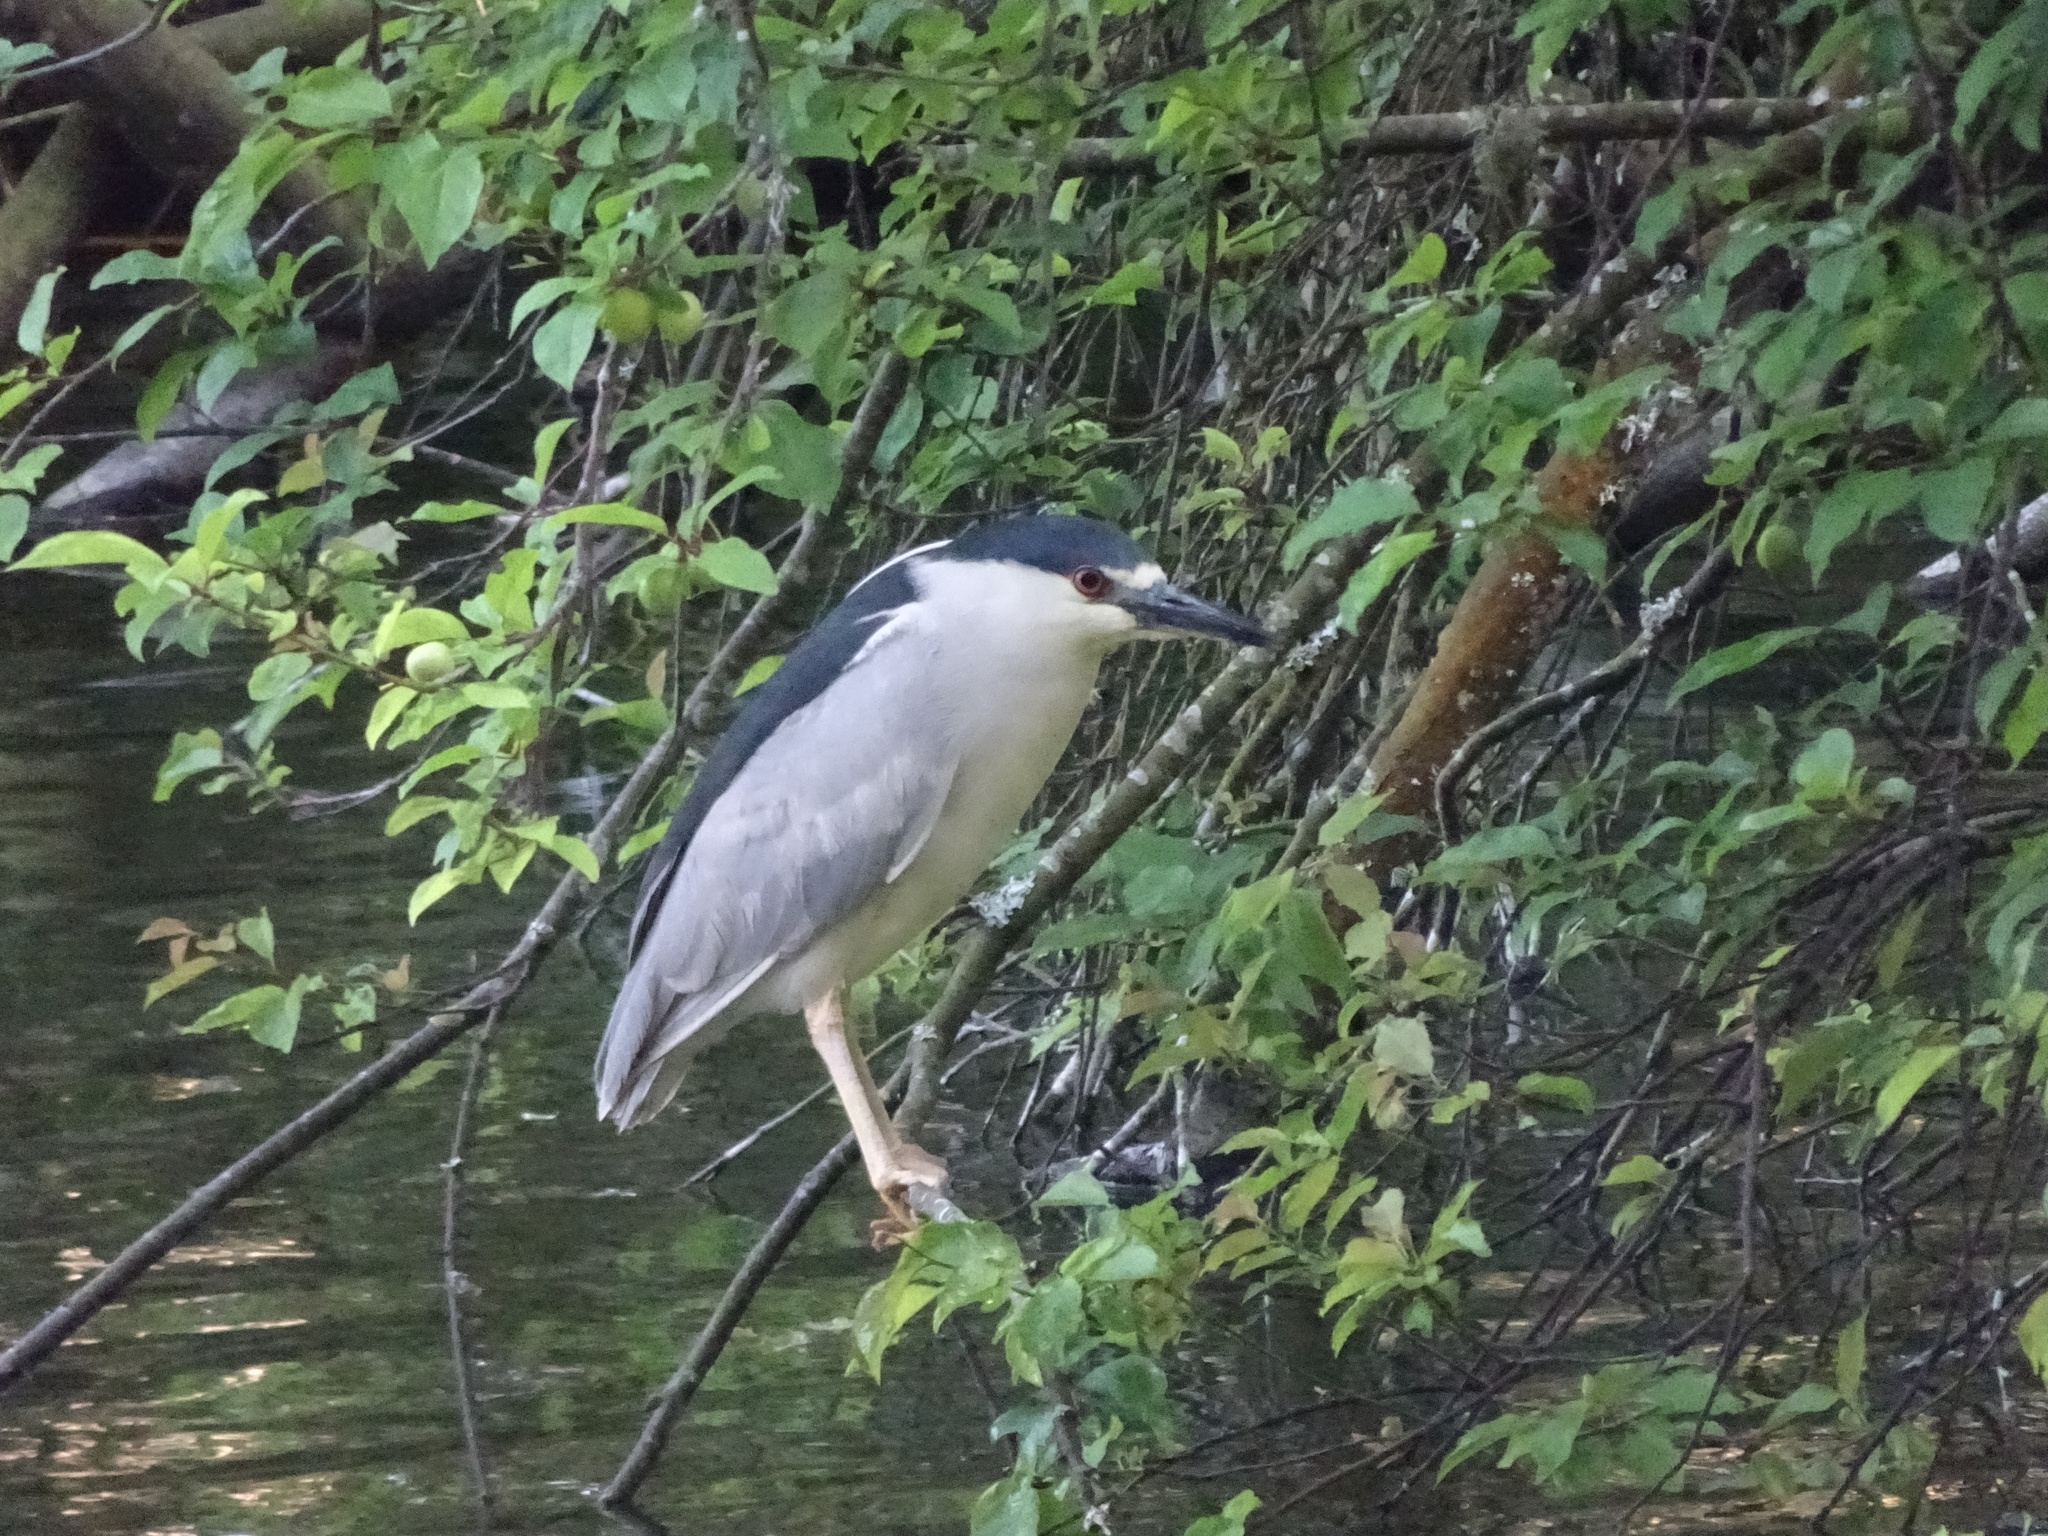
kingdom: Animalia
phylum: Chordata
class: Aves
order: Pelecaniformes
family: Ardeidae
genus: Nycticorax
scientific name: Nycticorax nycticorax
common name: Black-crowned night heron
